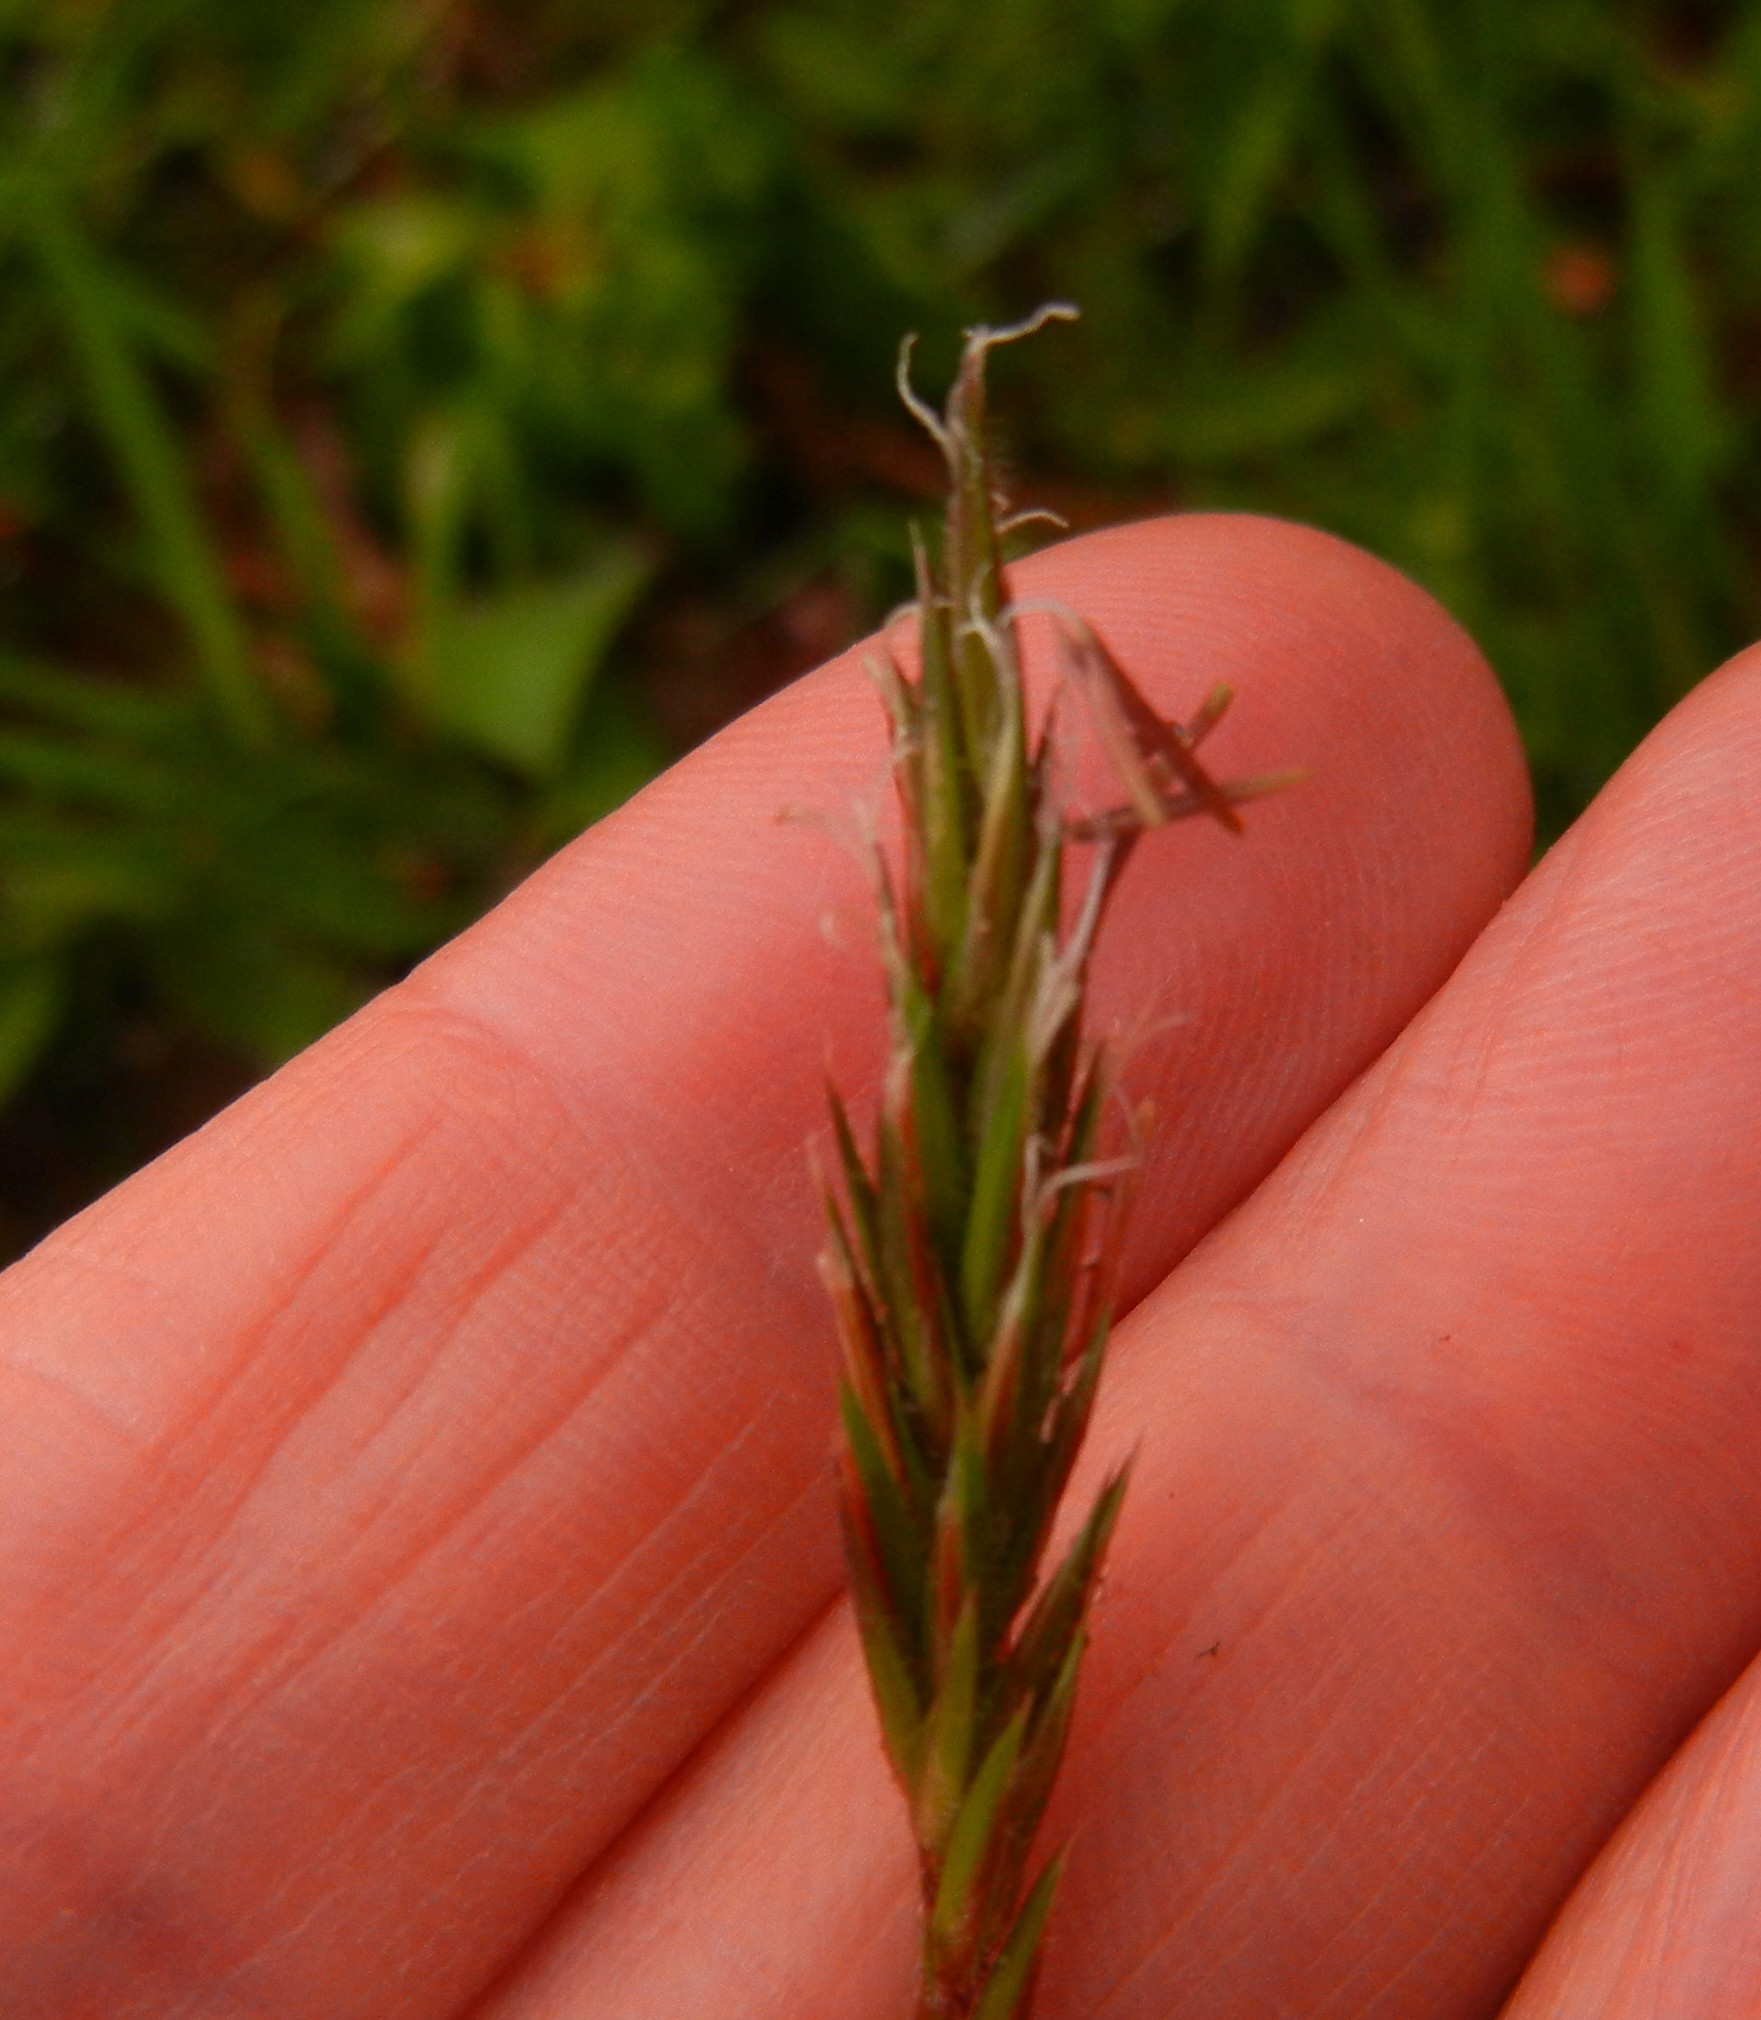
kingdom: Plantae
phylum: Tracheophyta
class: Liliopsida
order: Poales
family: Poaceae
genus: Anthoxanthum
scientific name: Anthoxanthum odoratum
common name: Sweet vernalgrass
